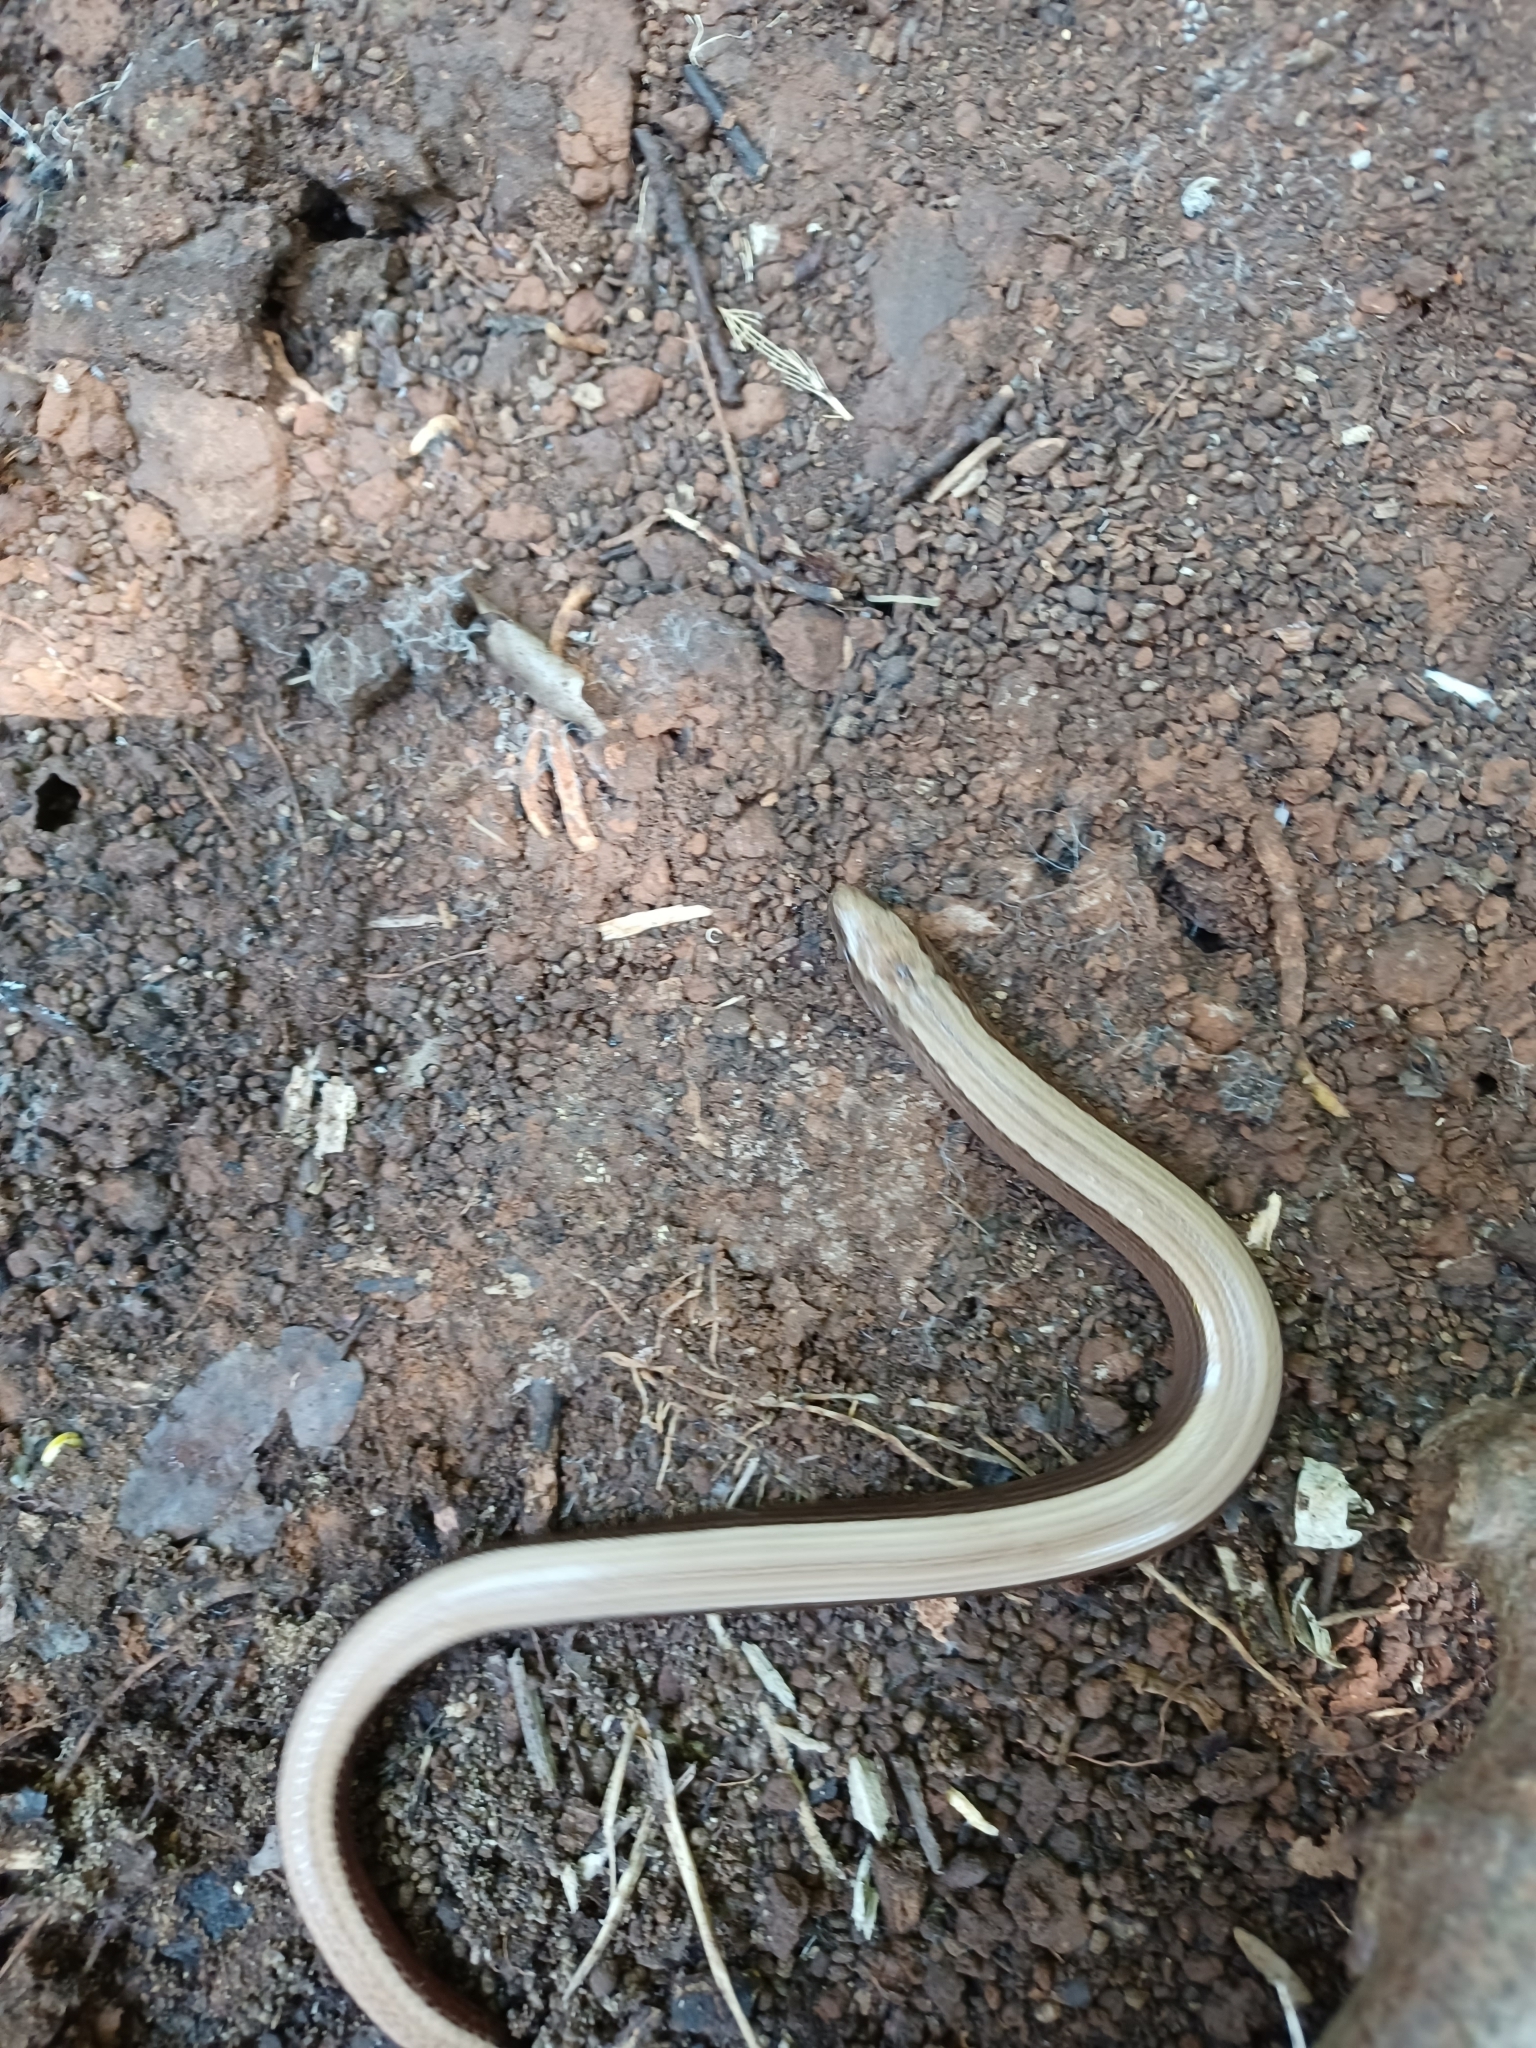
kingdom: Animalia
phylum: Chordata
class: Squamata
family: Anguidae
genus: Anguis
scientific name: Anguis fragilis
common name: Slow worm
